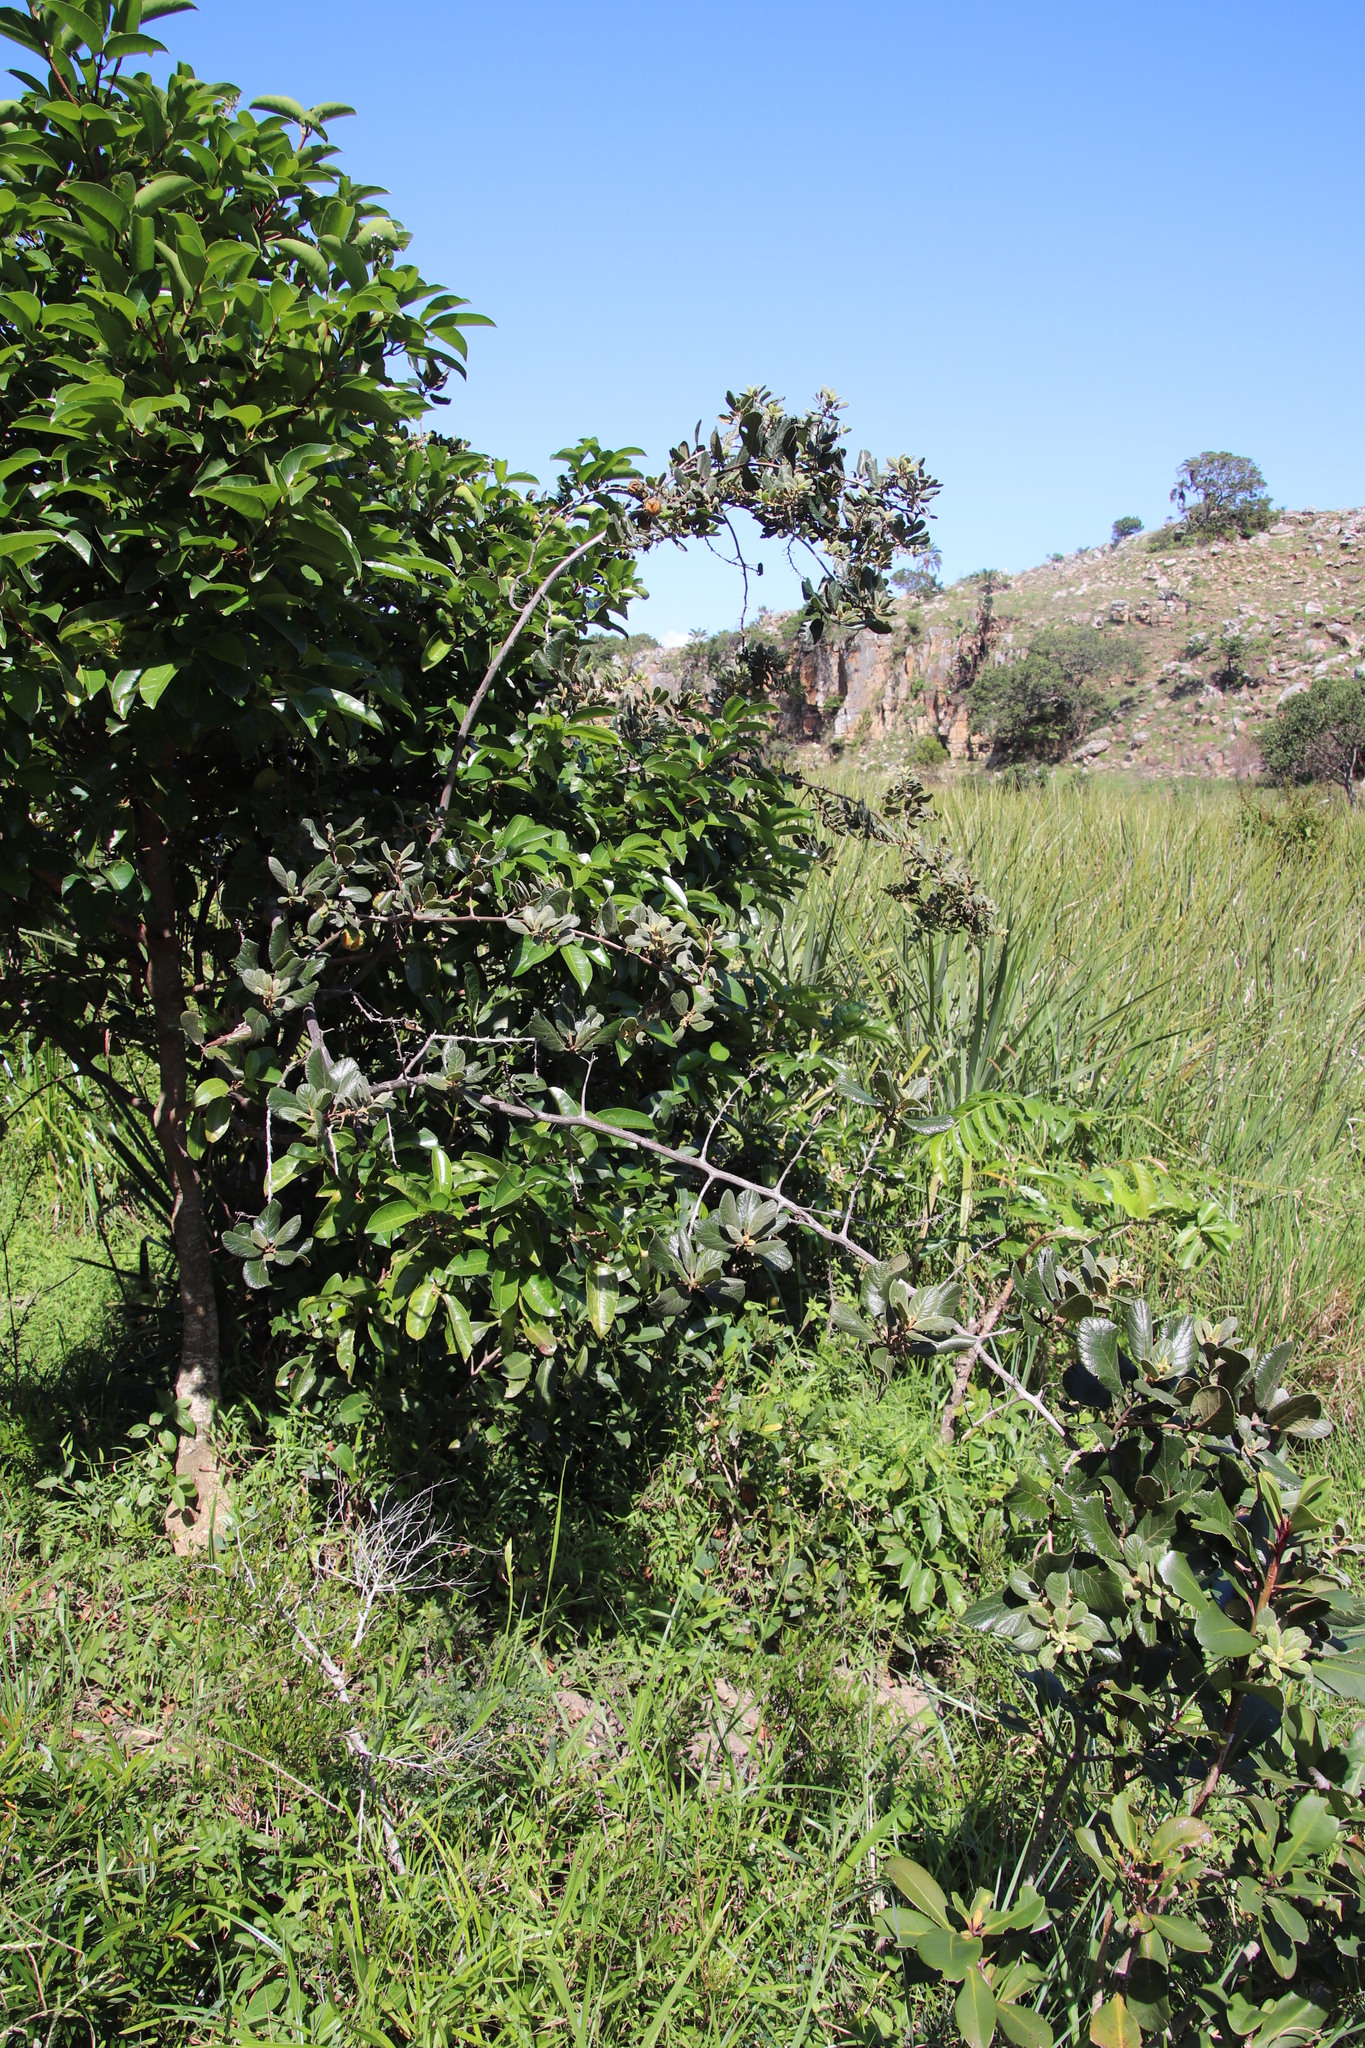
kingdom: Plantae
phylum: Tracheophyta
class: Magnoliopsida
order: Ericales
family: Ebenaceae
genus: Diospyros
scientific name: Diospyros villosa
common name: Hairy star-apple
